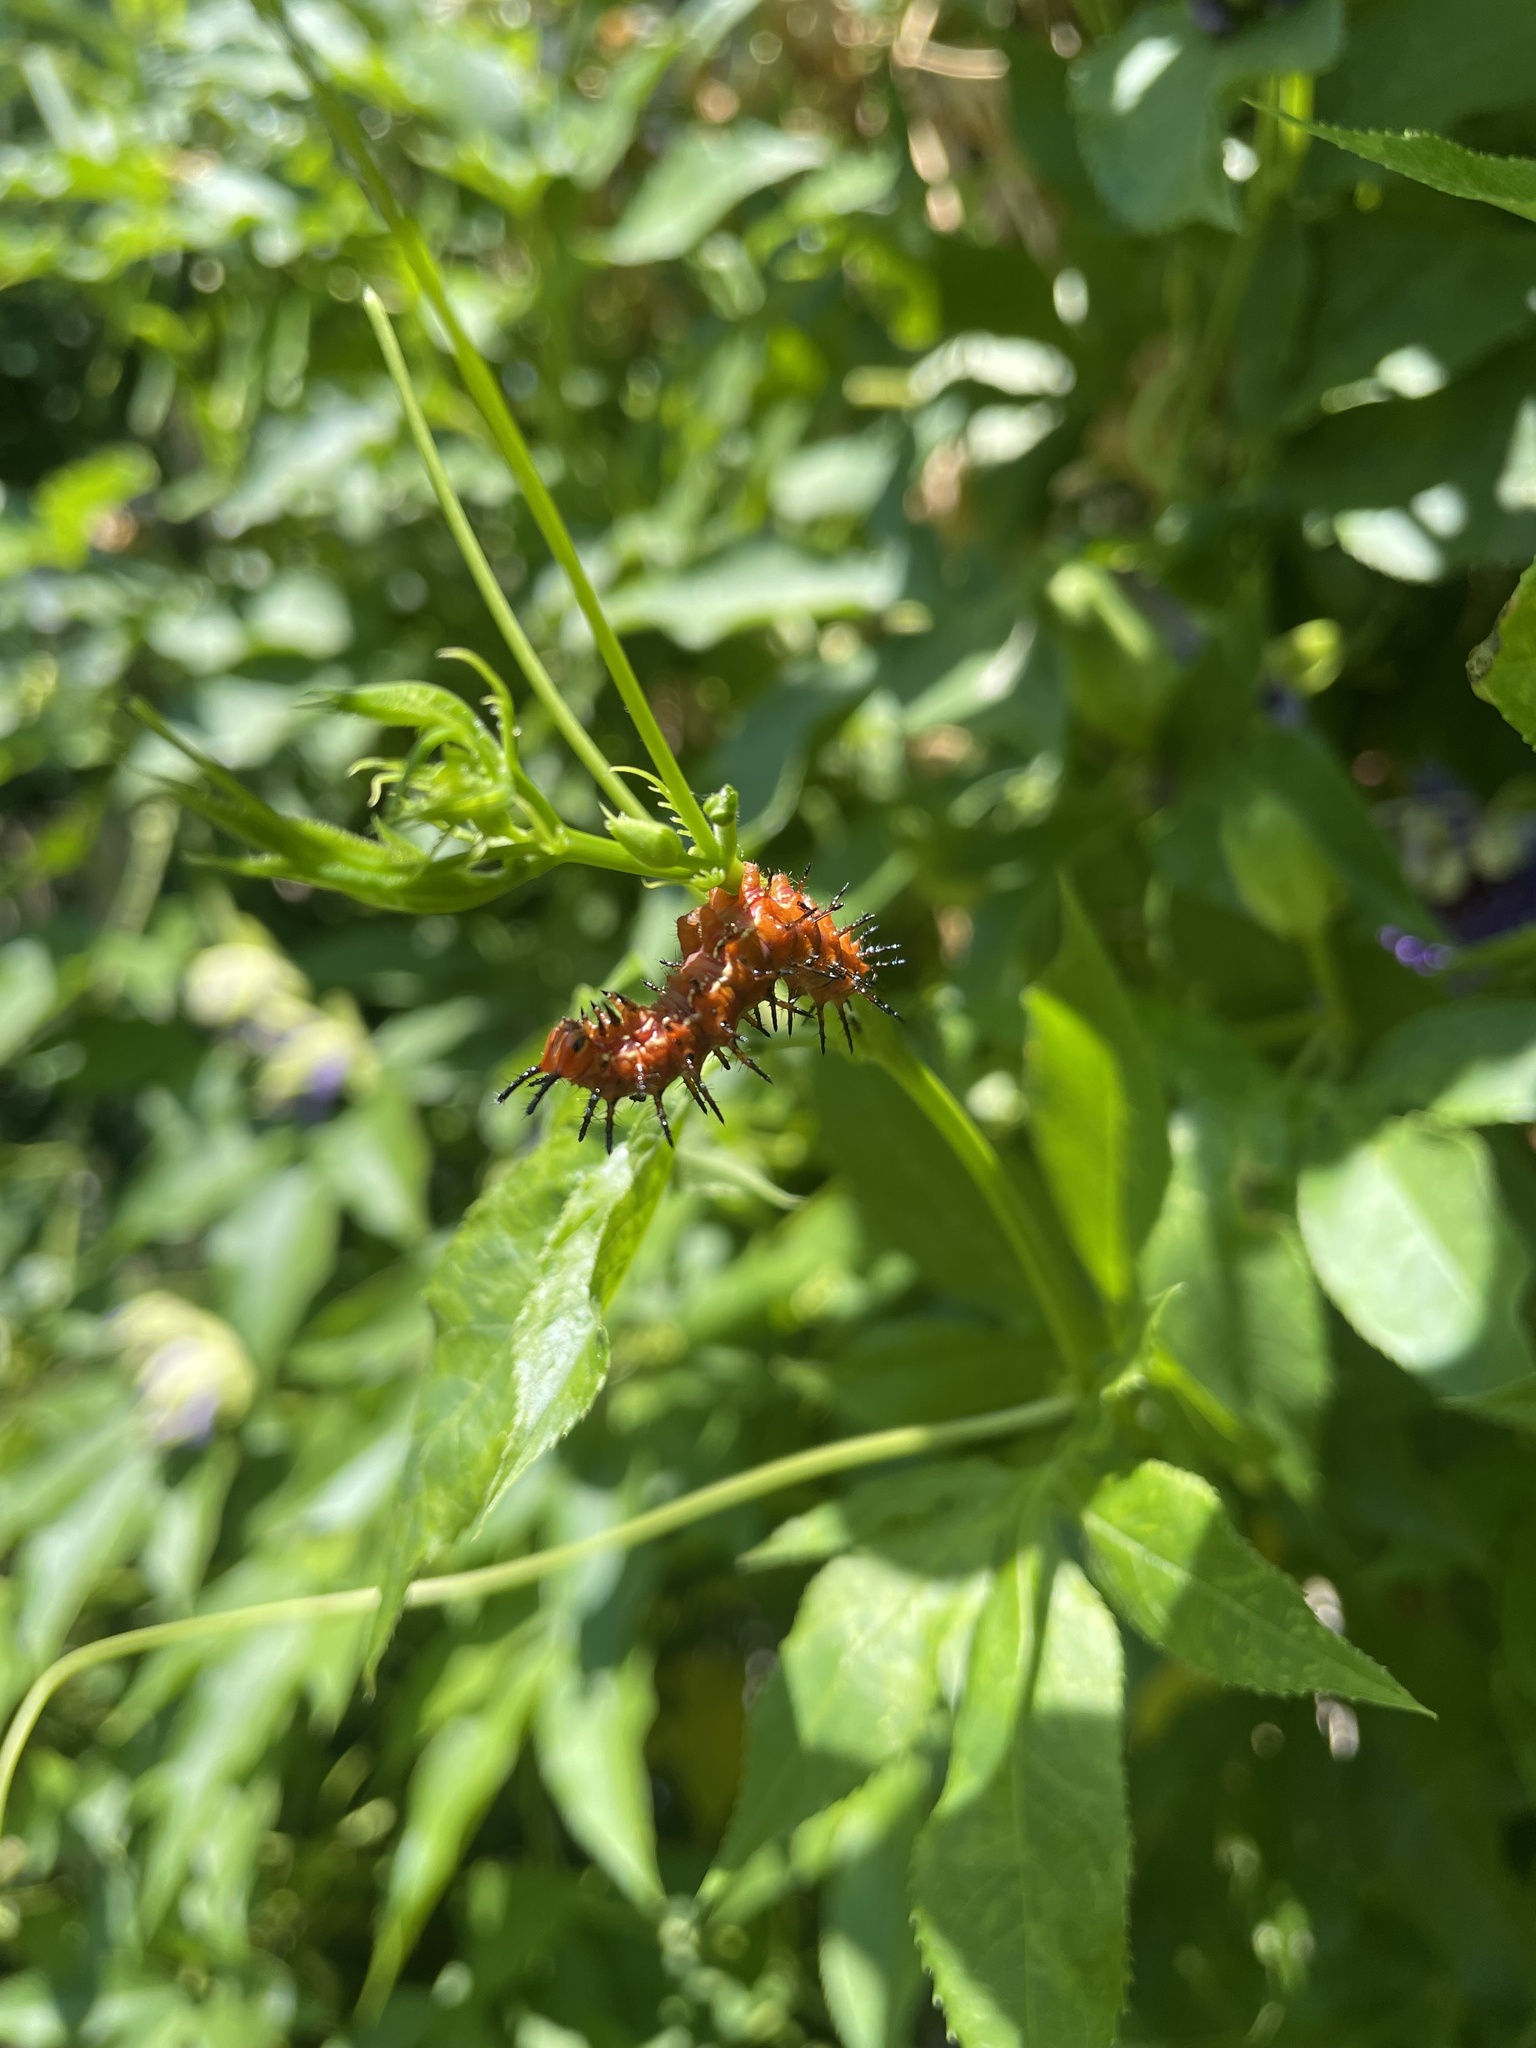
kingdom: Animalia
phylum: Arthropoda
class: Insecta
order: Lepidoptera
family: Nymphalidae
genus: Dione
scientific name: Dione vanillae
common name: Gulf fritillary
